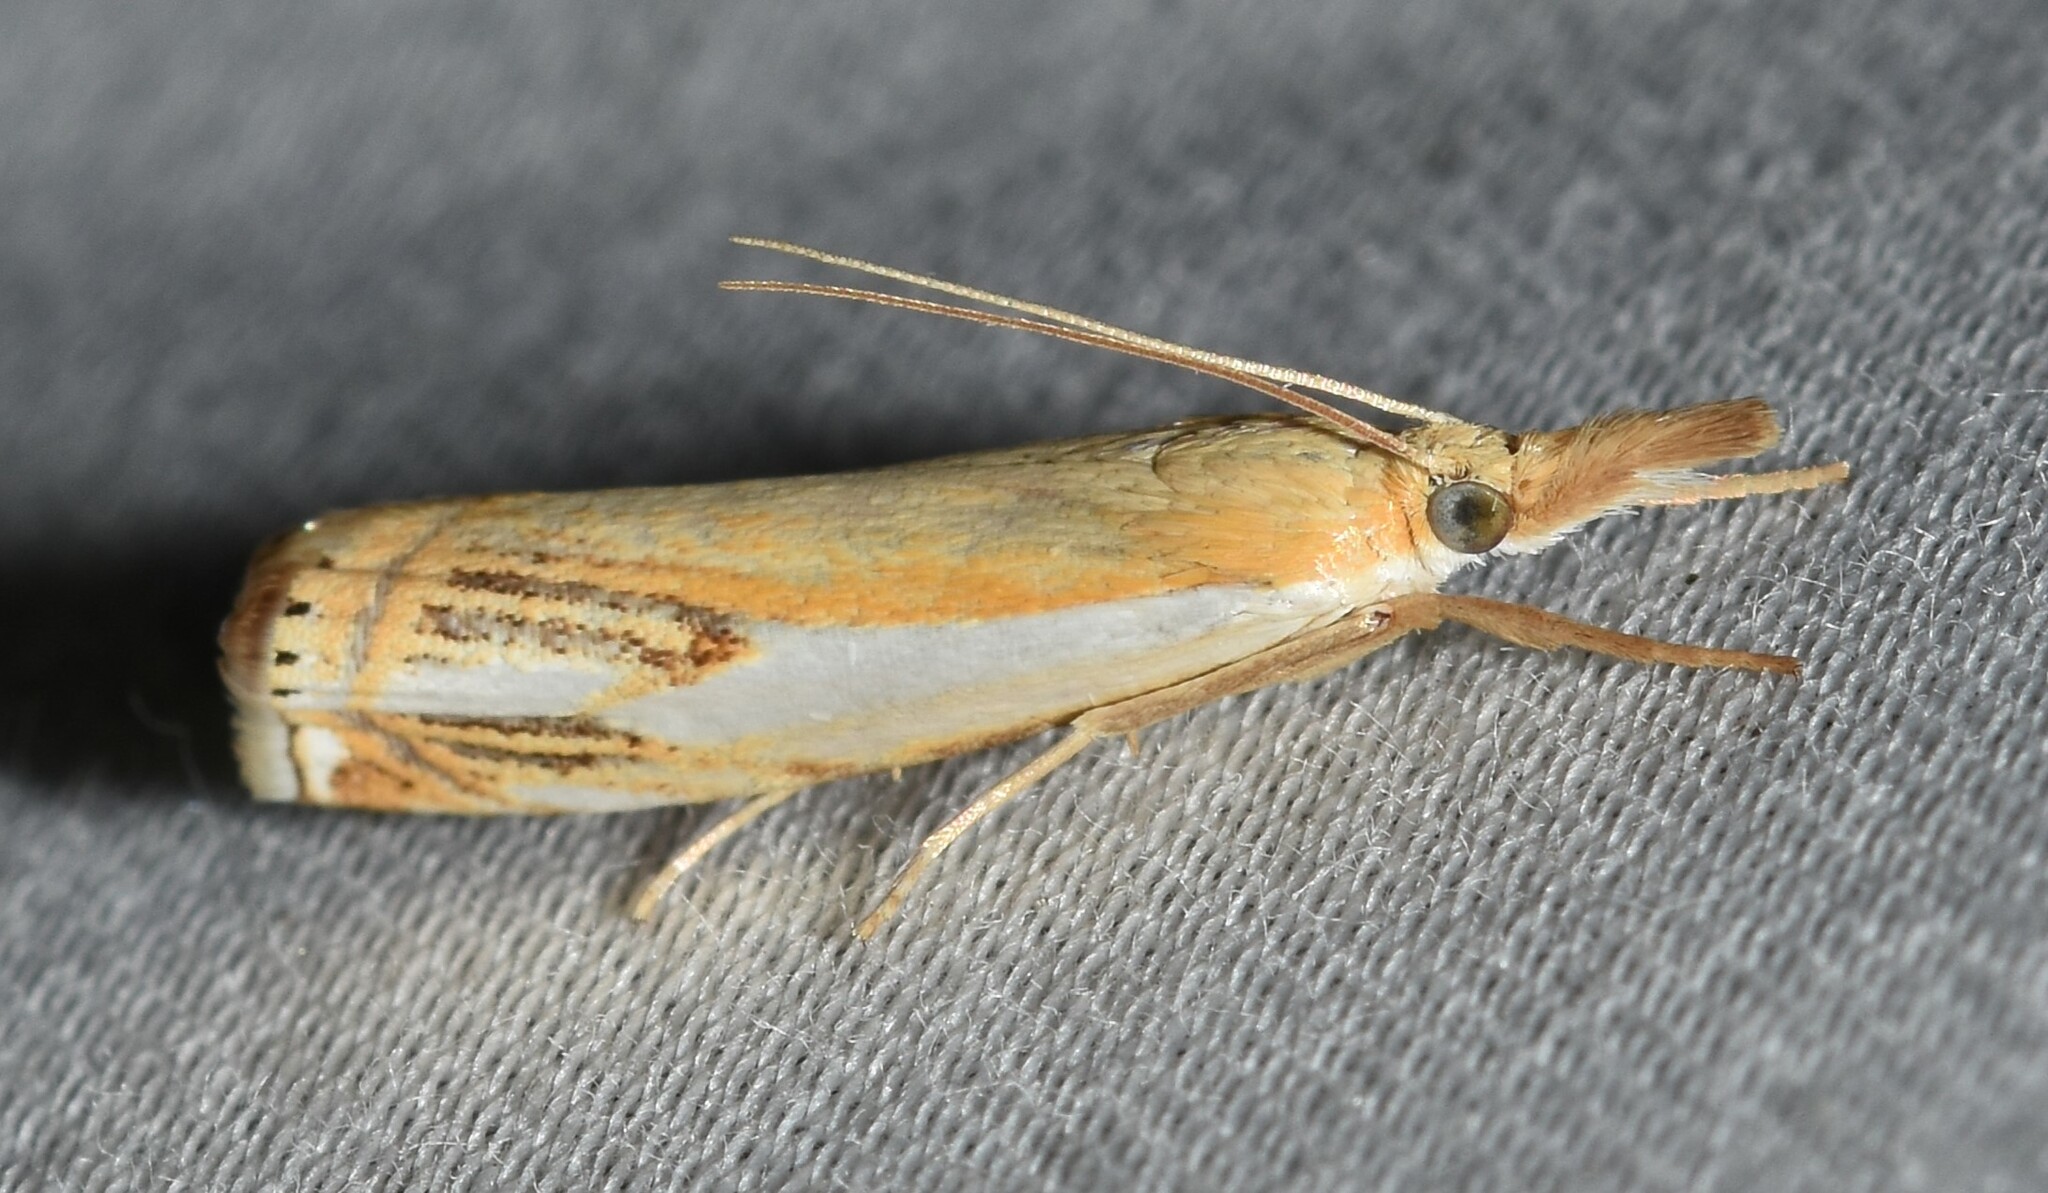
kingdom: Animalia
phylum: Arthropoda
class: Insecta
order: Lepidoptera
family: Crambidae
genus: Crambus
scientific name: Crambus agitatellus
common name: Double-banded grass-veneer
